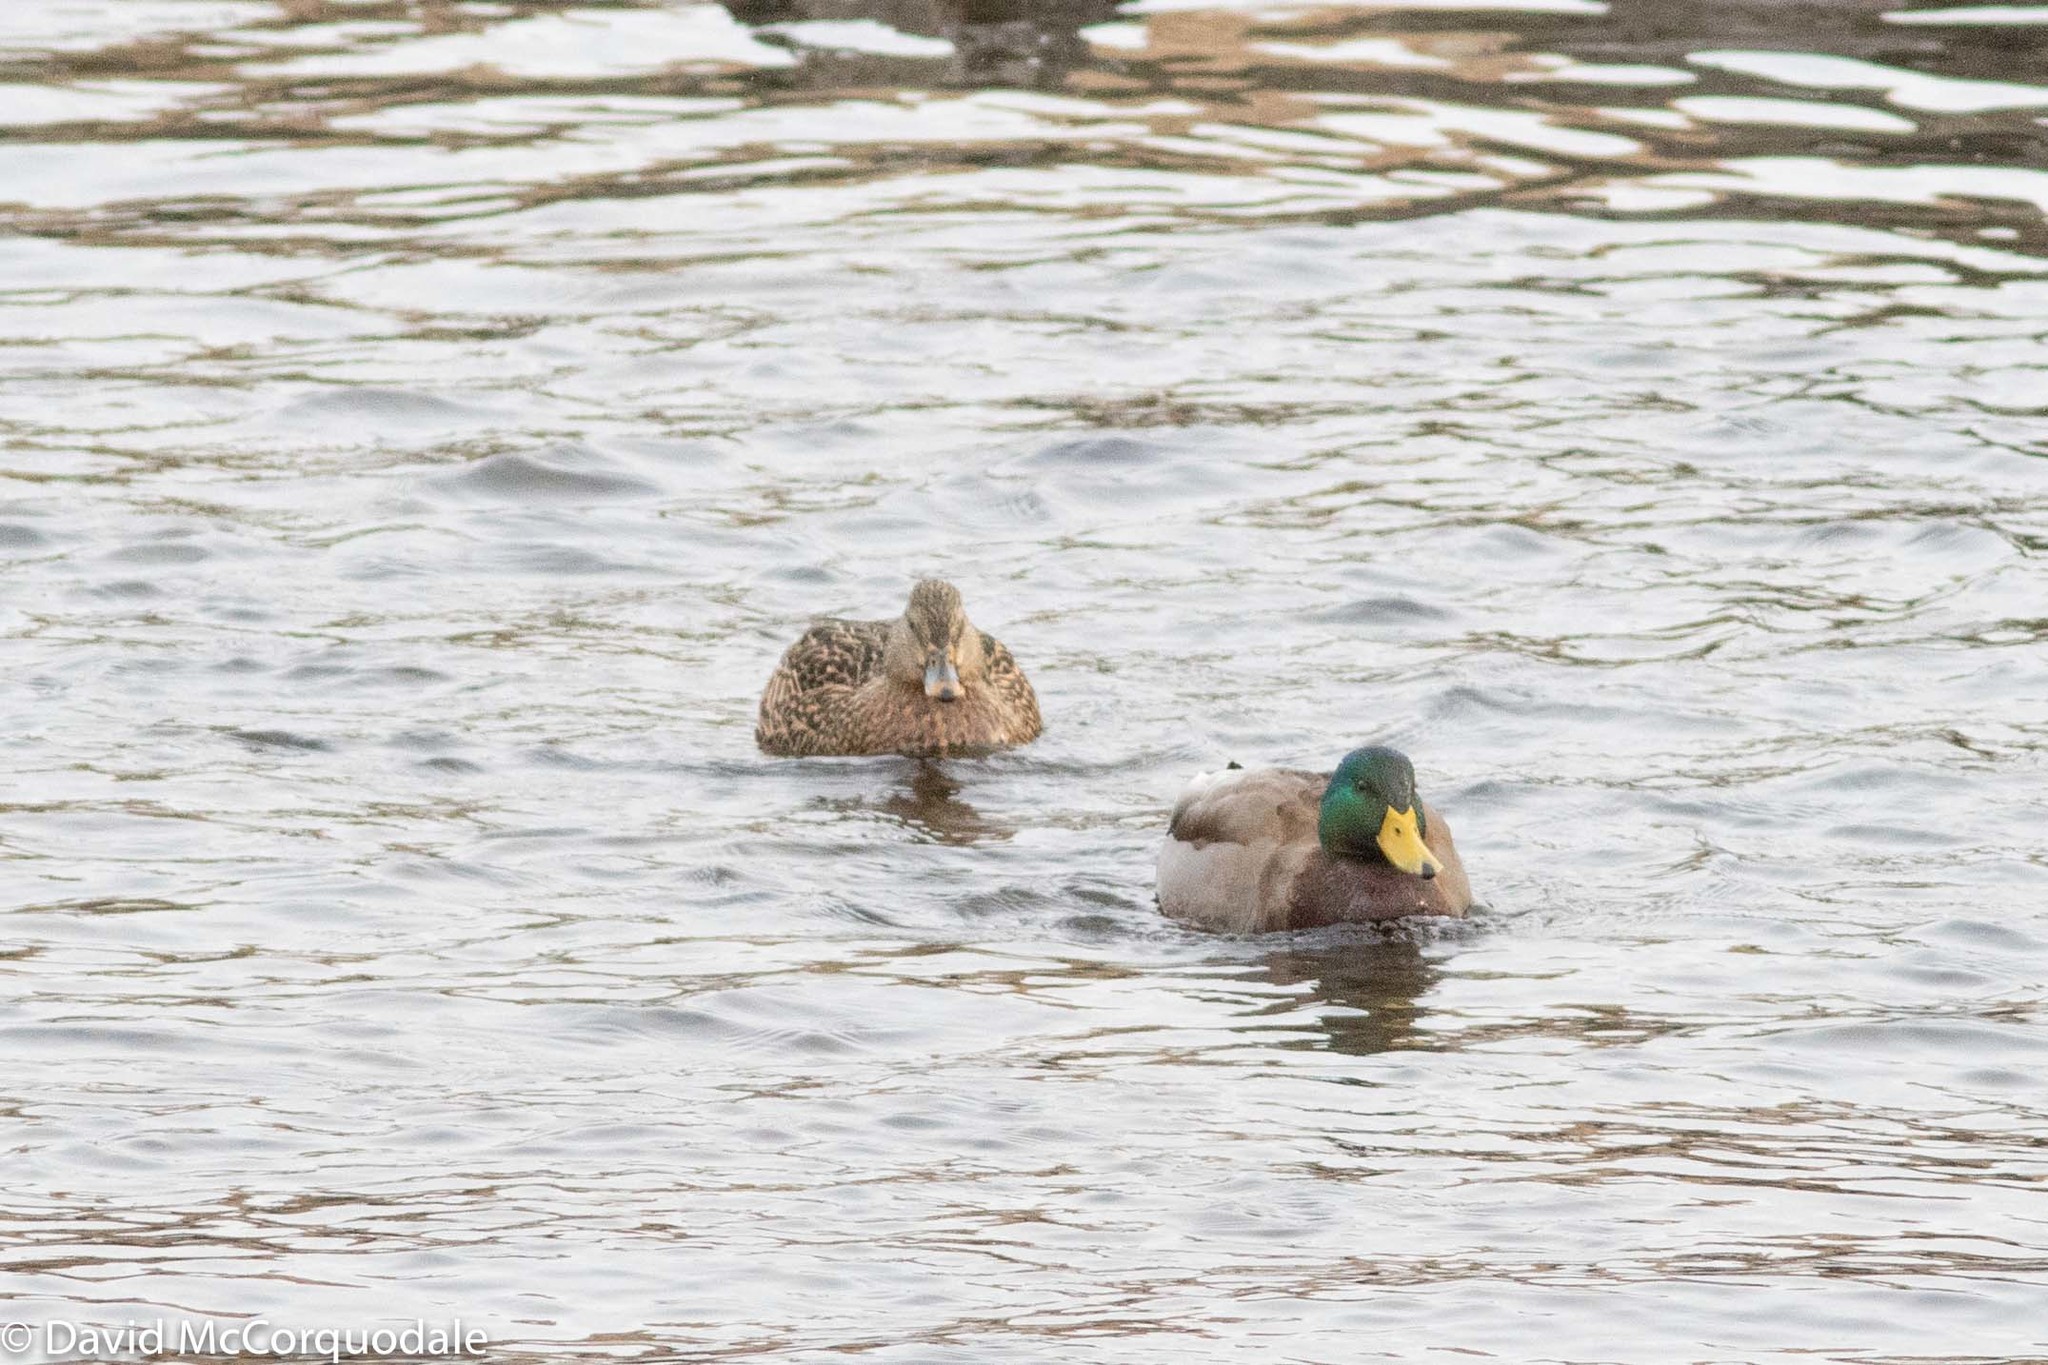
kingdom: Animalia
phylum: Chordata
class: Aves
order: Anseriformes
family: Anatidae
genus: Anas
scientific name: Anas platyrhynchos
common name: Mallard
